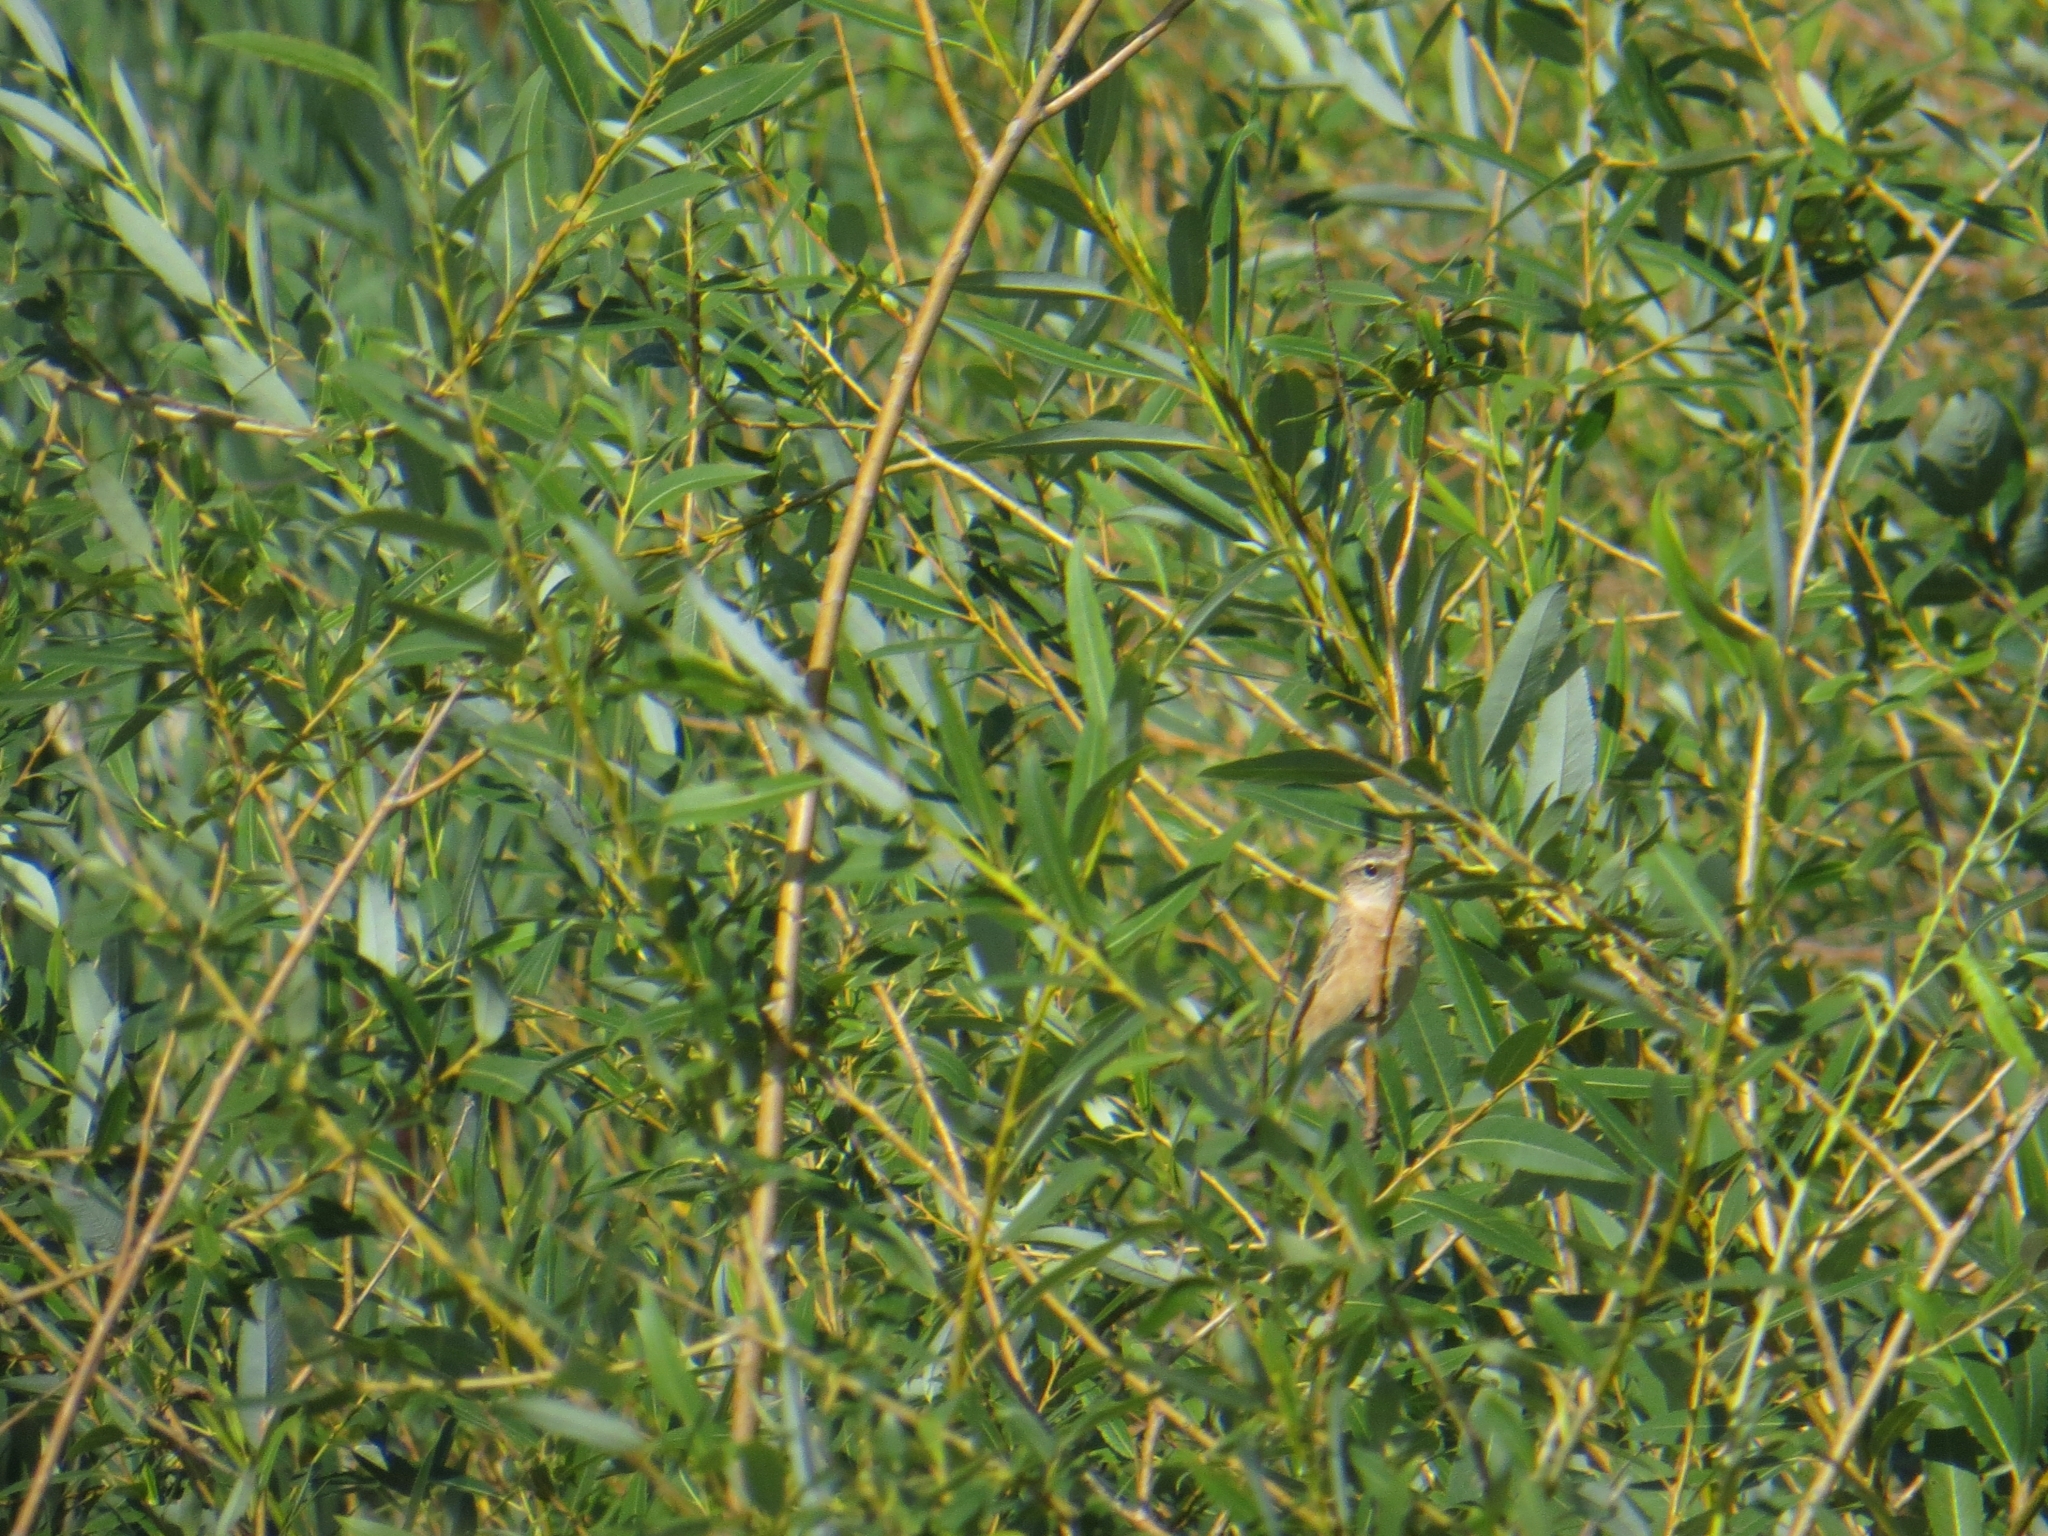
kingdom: Animalia
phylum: Chordata
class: Aves
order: Passeriformes
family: Muscicapidae
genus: Saxicola
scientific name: Saxicola maurus
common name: Siberian stonechat
